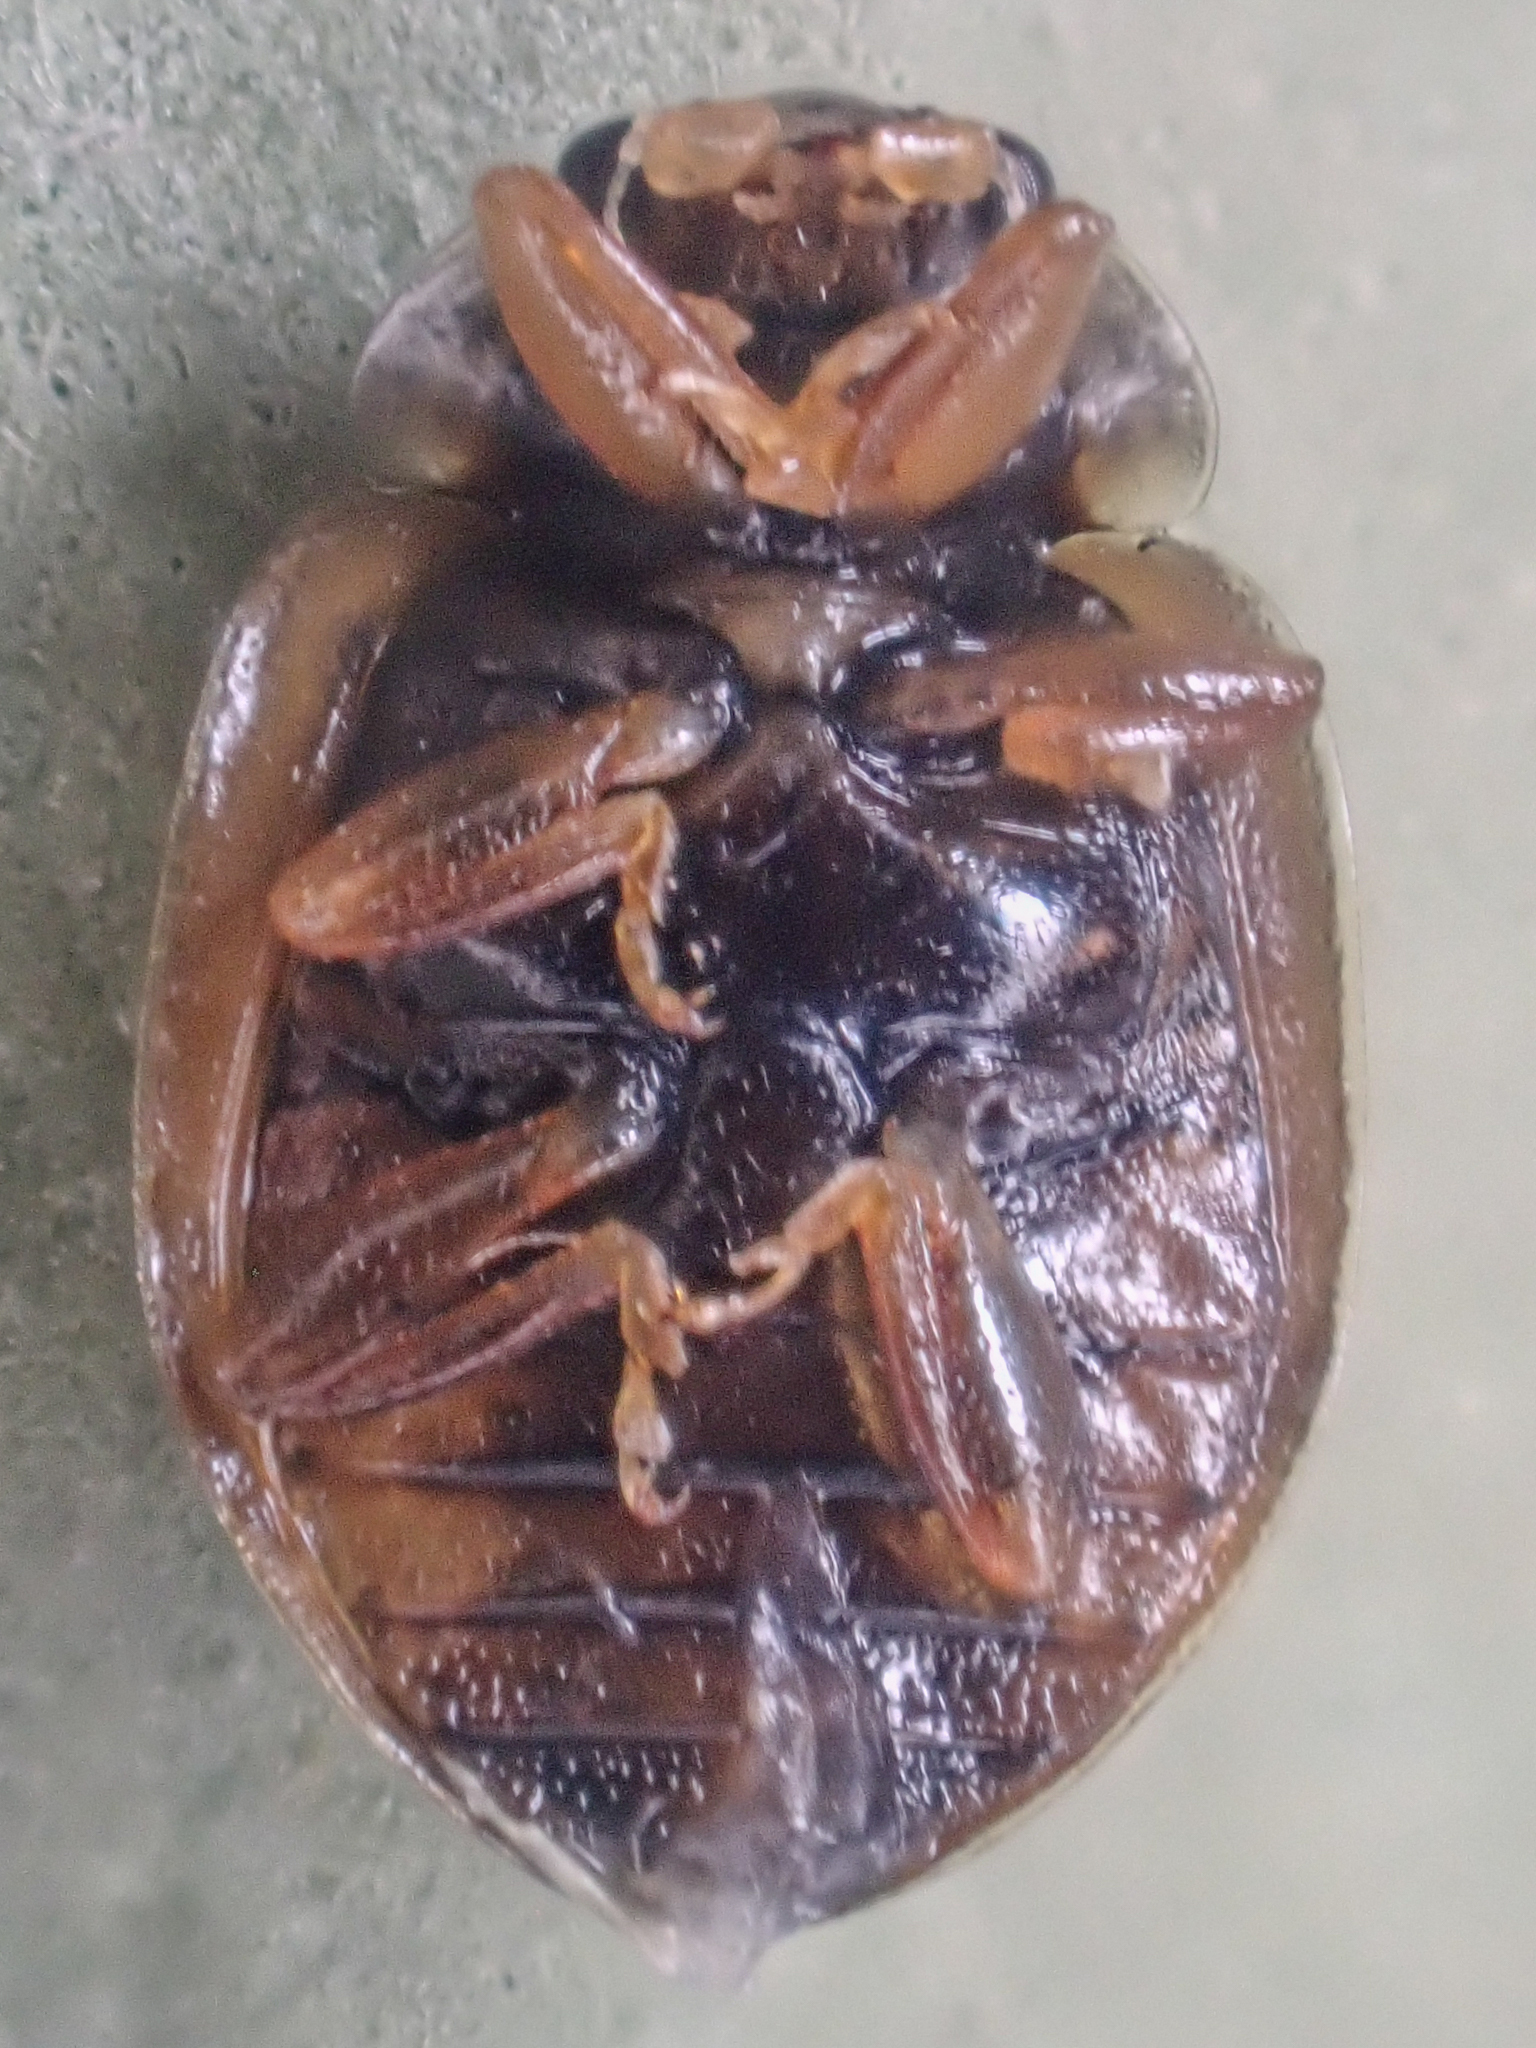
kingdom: Animalia
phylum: Arthropoda
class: Insecta
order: Coleoptera
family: Coccinellidae
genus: Mulsantina
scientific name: Mulsantina picta
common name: Painted ladybird
